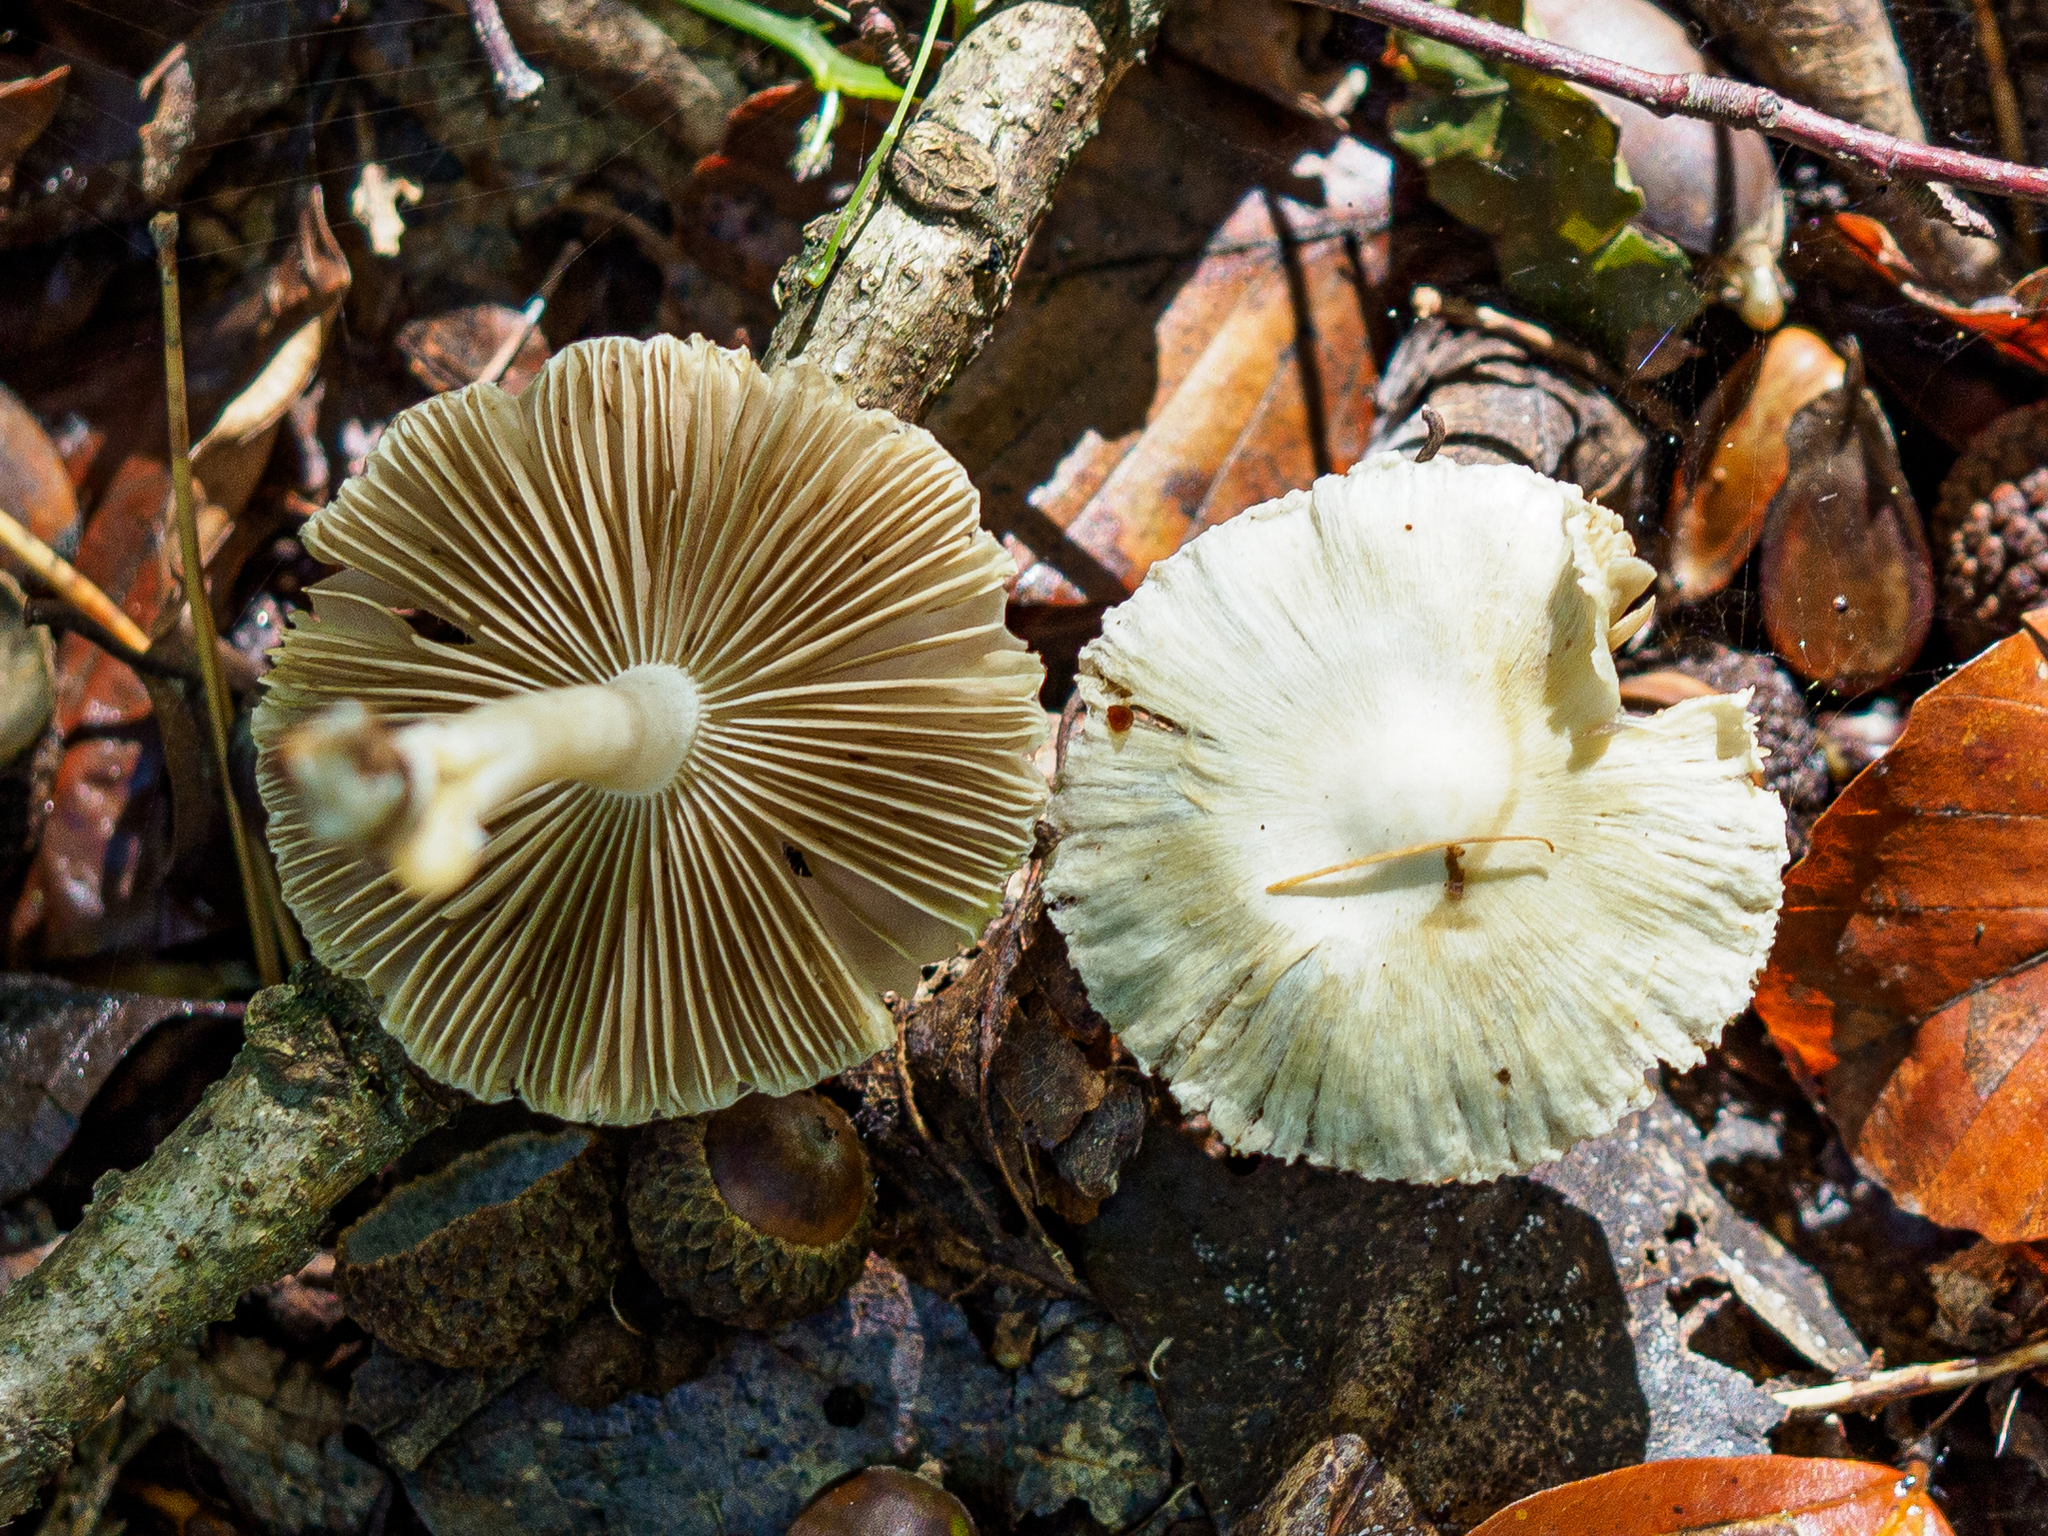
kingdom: Fungi
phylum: Basidiomycota
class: Agaricomycetes
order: Agaricales
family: Inocybaceae
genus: Inocybe
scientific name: Inocybe geophylla
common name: White fibrecap
